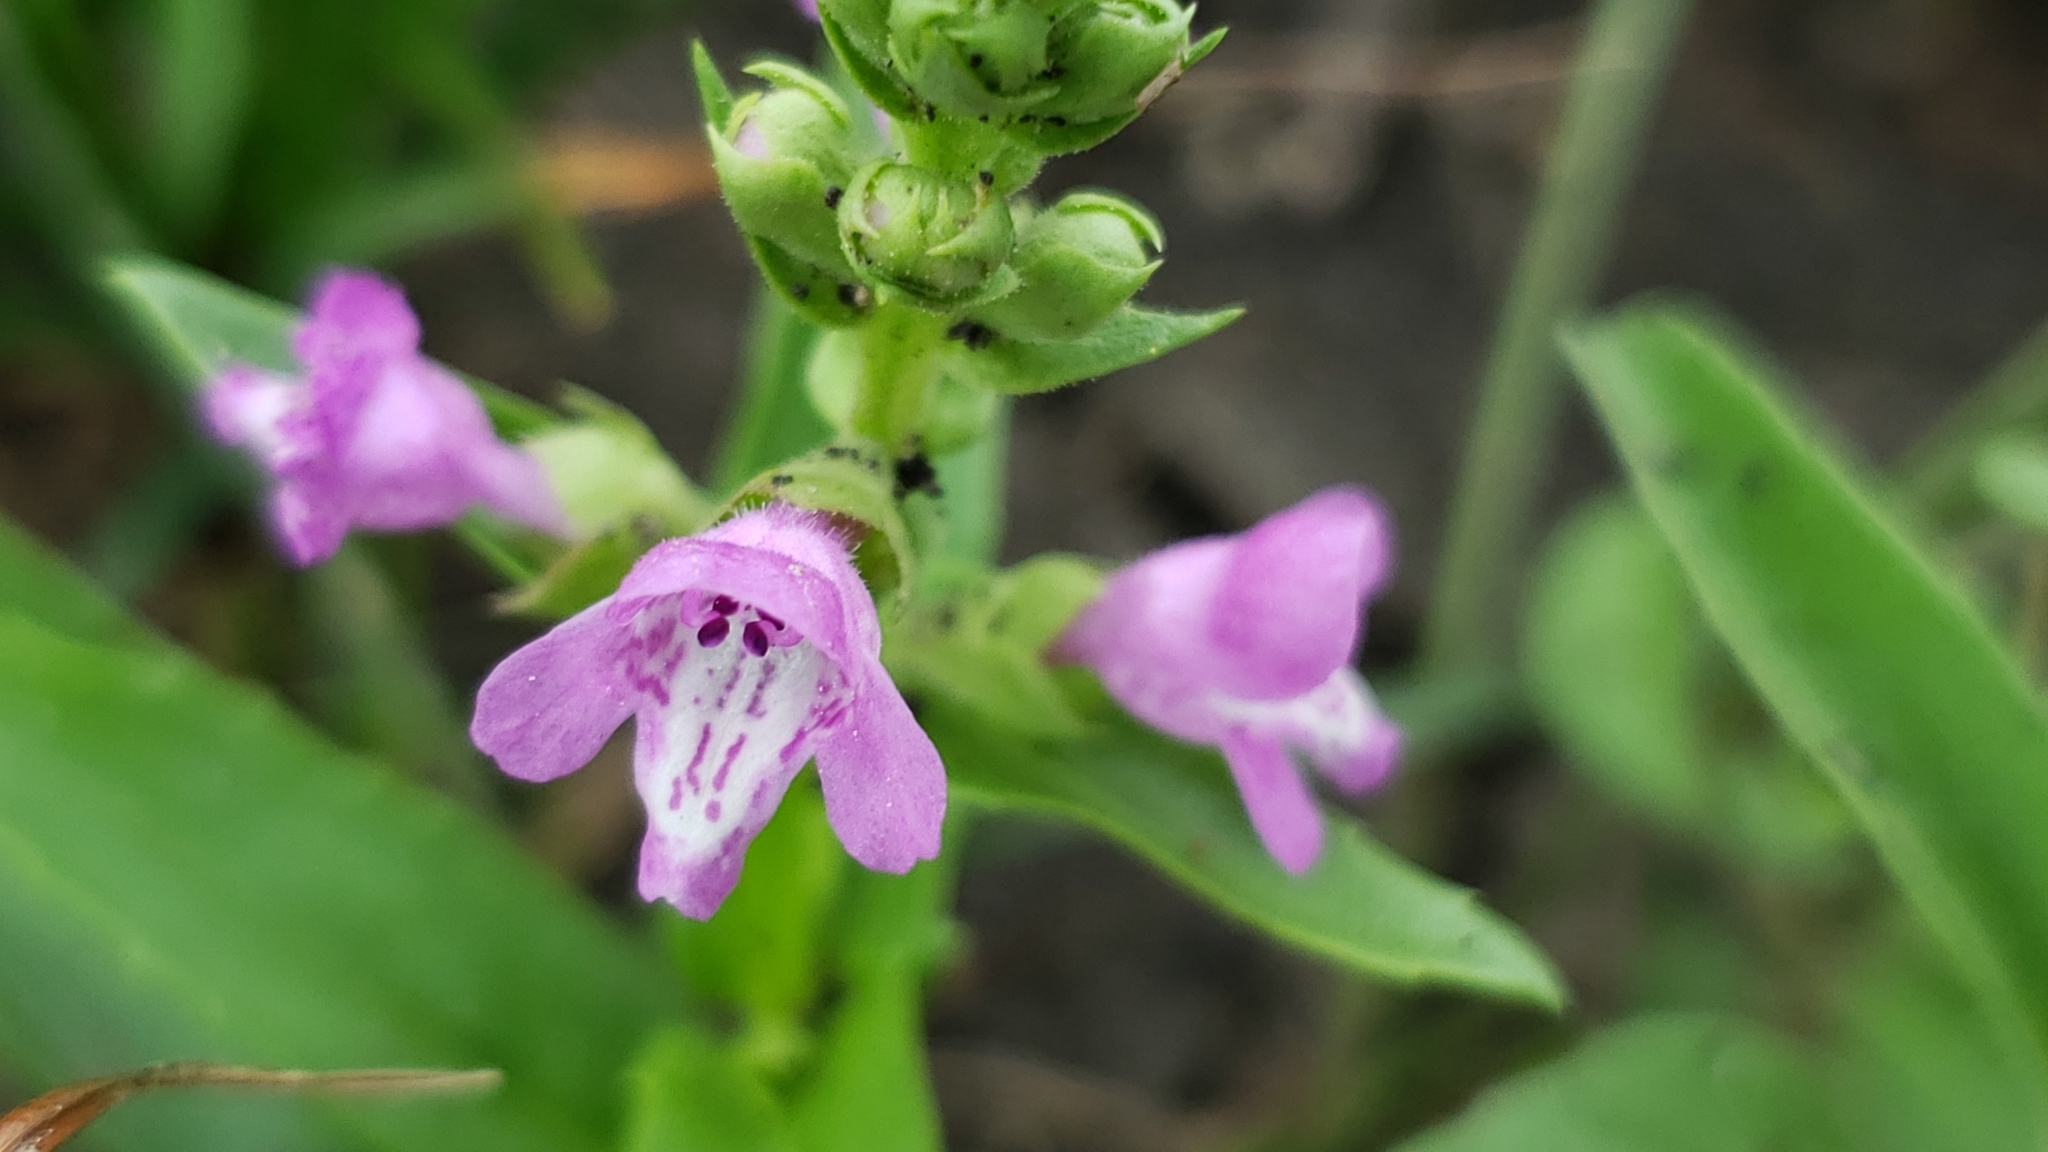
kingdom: Plantae
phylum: Tracheophyta
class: Magnoliopsida
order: Lamiales
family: Lamiaceae
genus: Warnockia
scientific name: Warnockia scutellarioides
